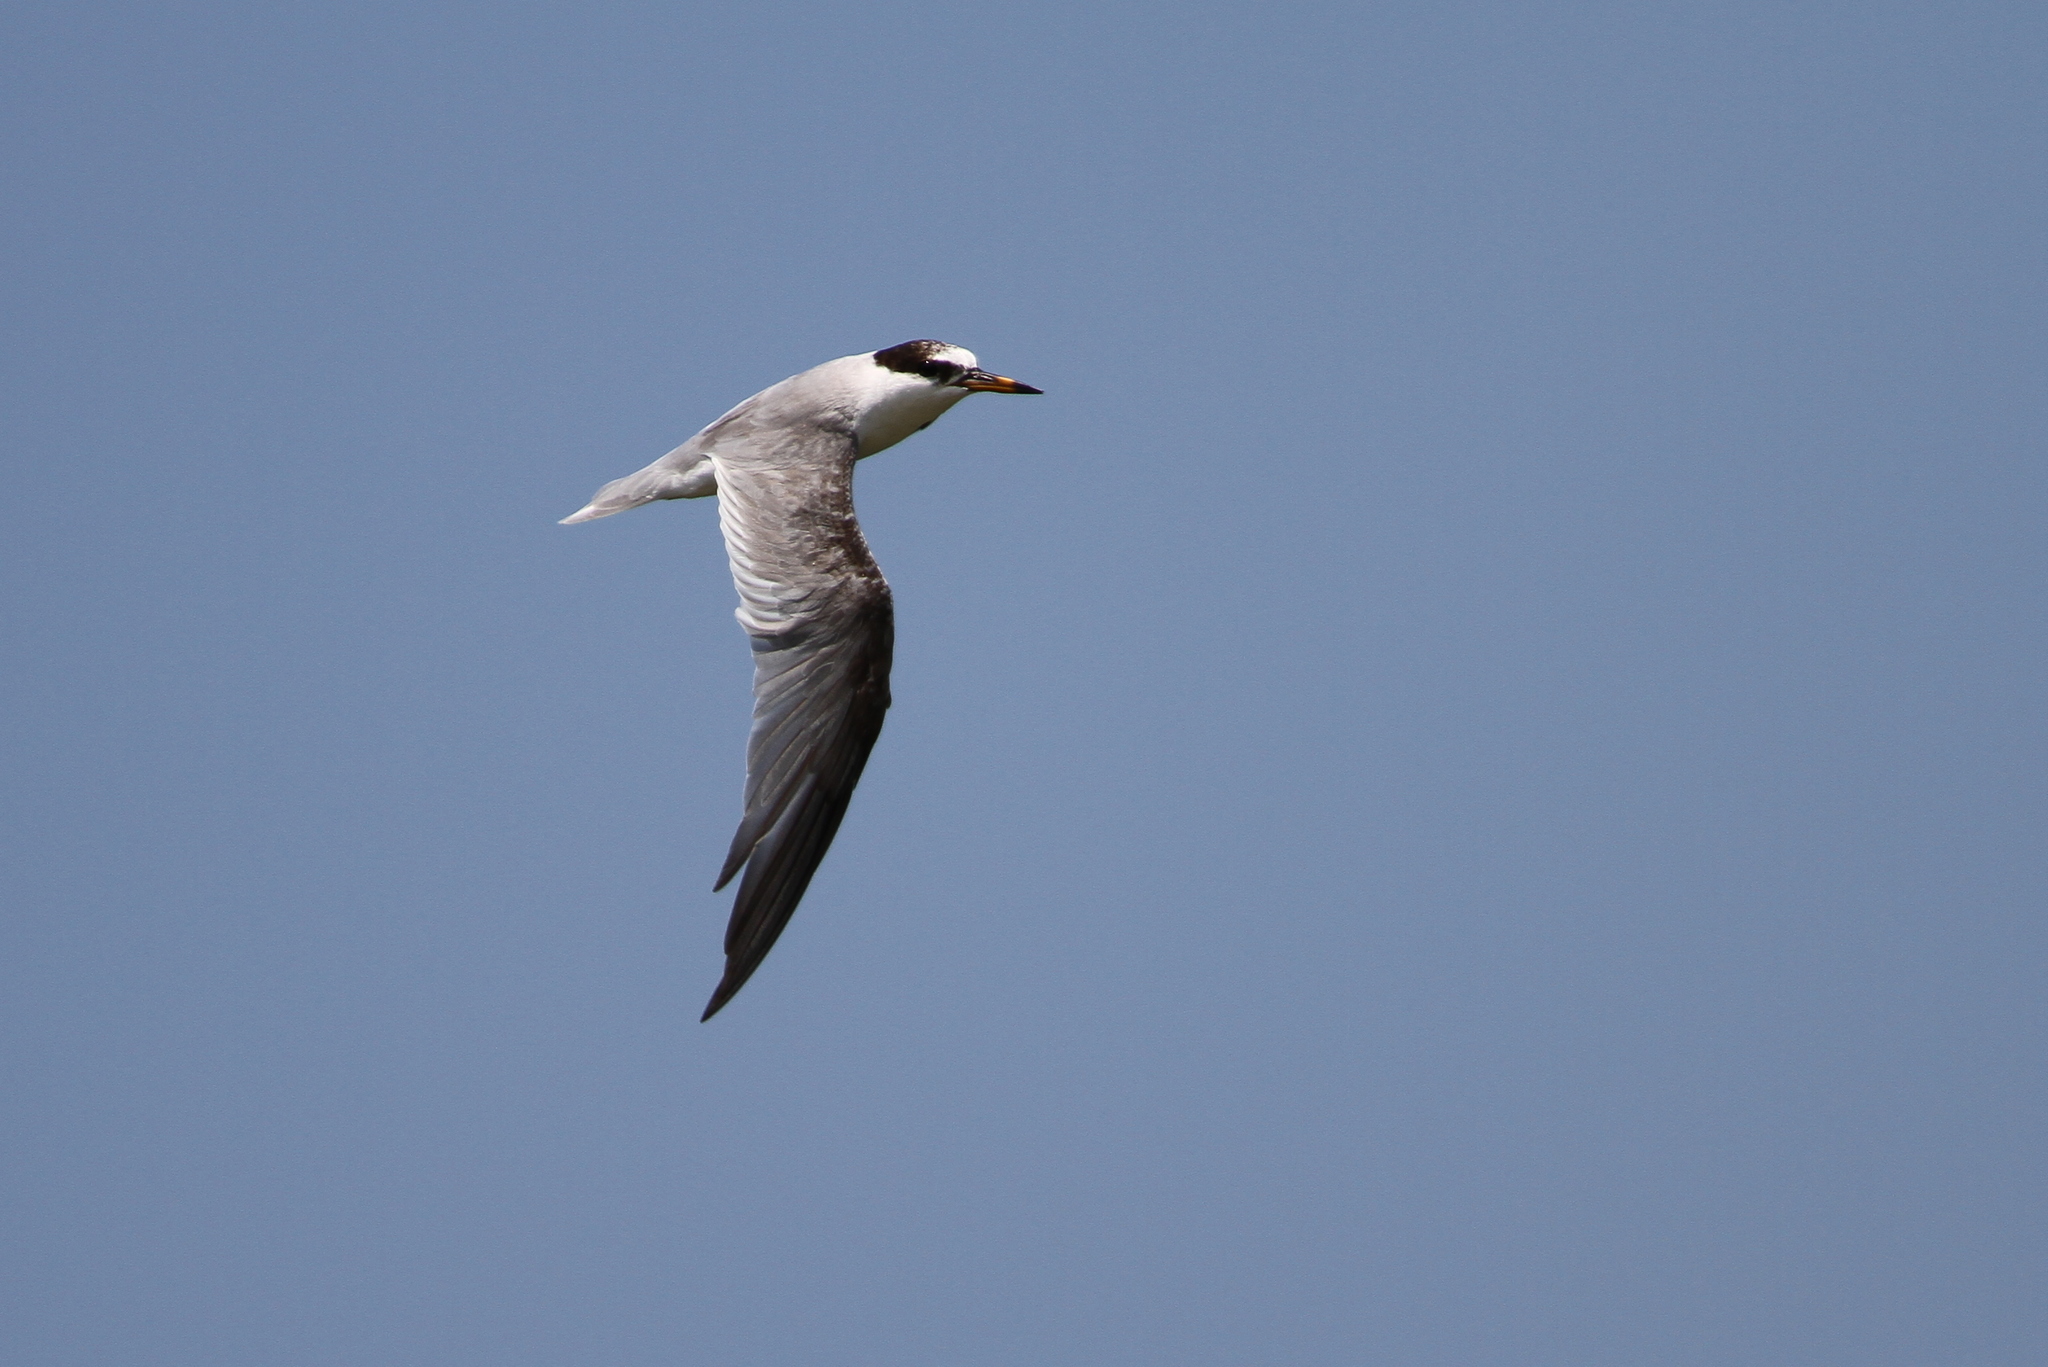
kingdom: Animalia
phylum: Chordata
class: Aves
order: Charadriiformes
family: Laridae
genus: Sternula
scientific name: Sternula albifrons
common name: Little tern
